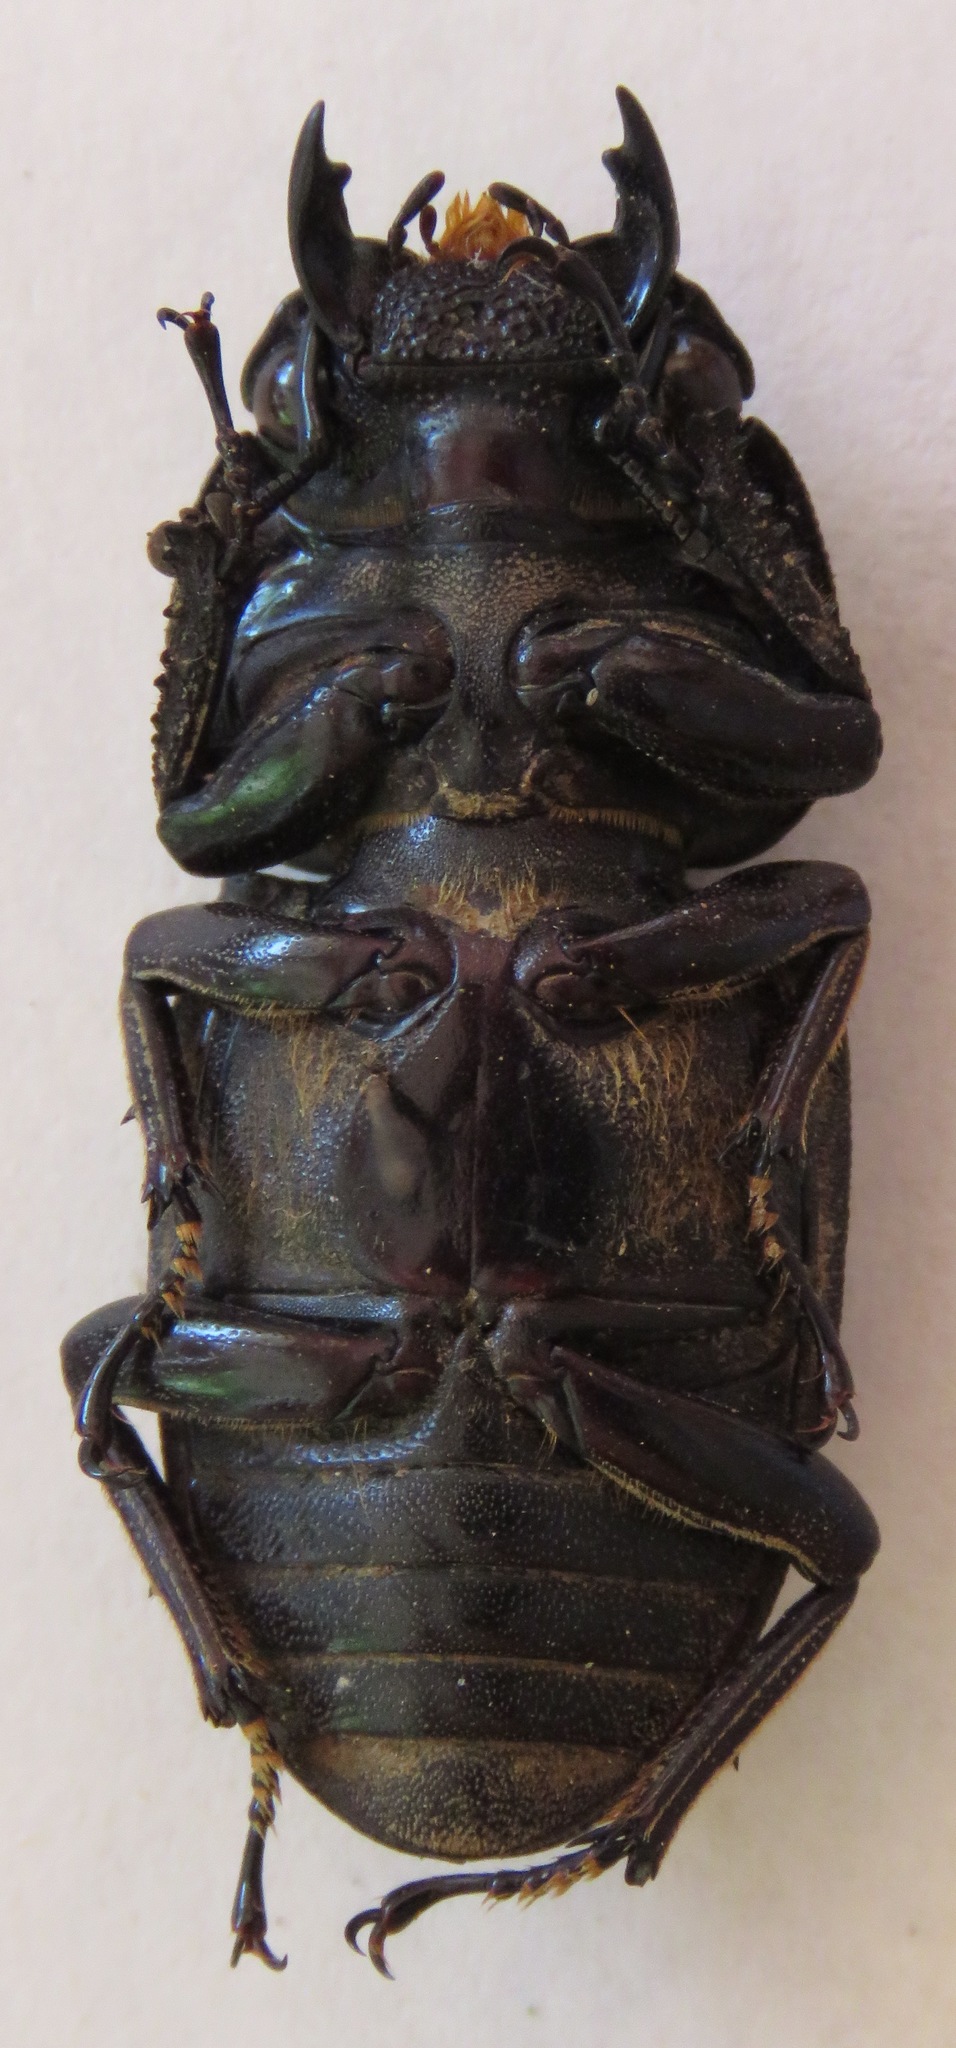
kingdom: Animalia
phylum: Arthropoda
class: Insecta
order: Coleoptera
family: Lucanidae
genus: Dorcus
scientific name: Dorcus ritsemae
